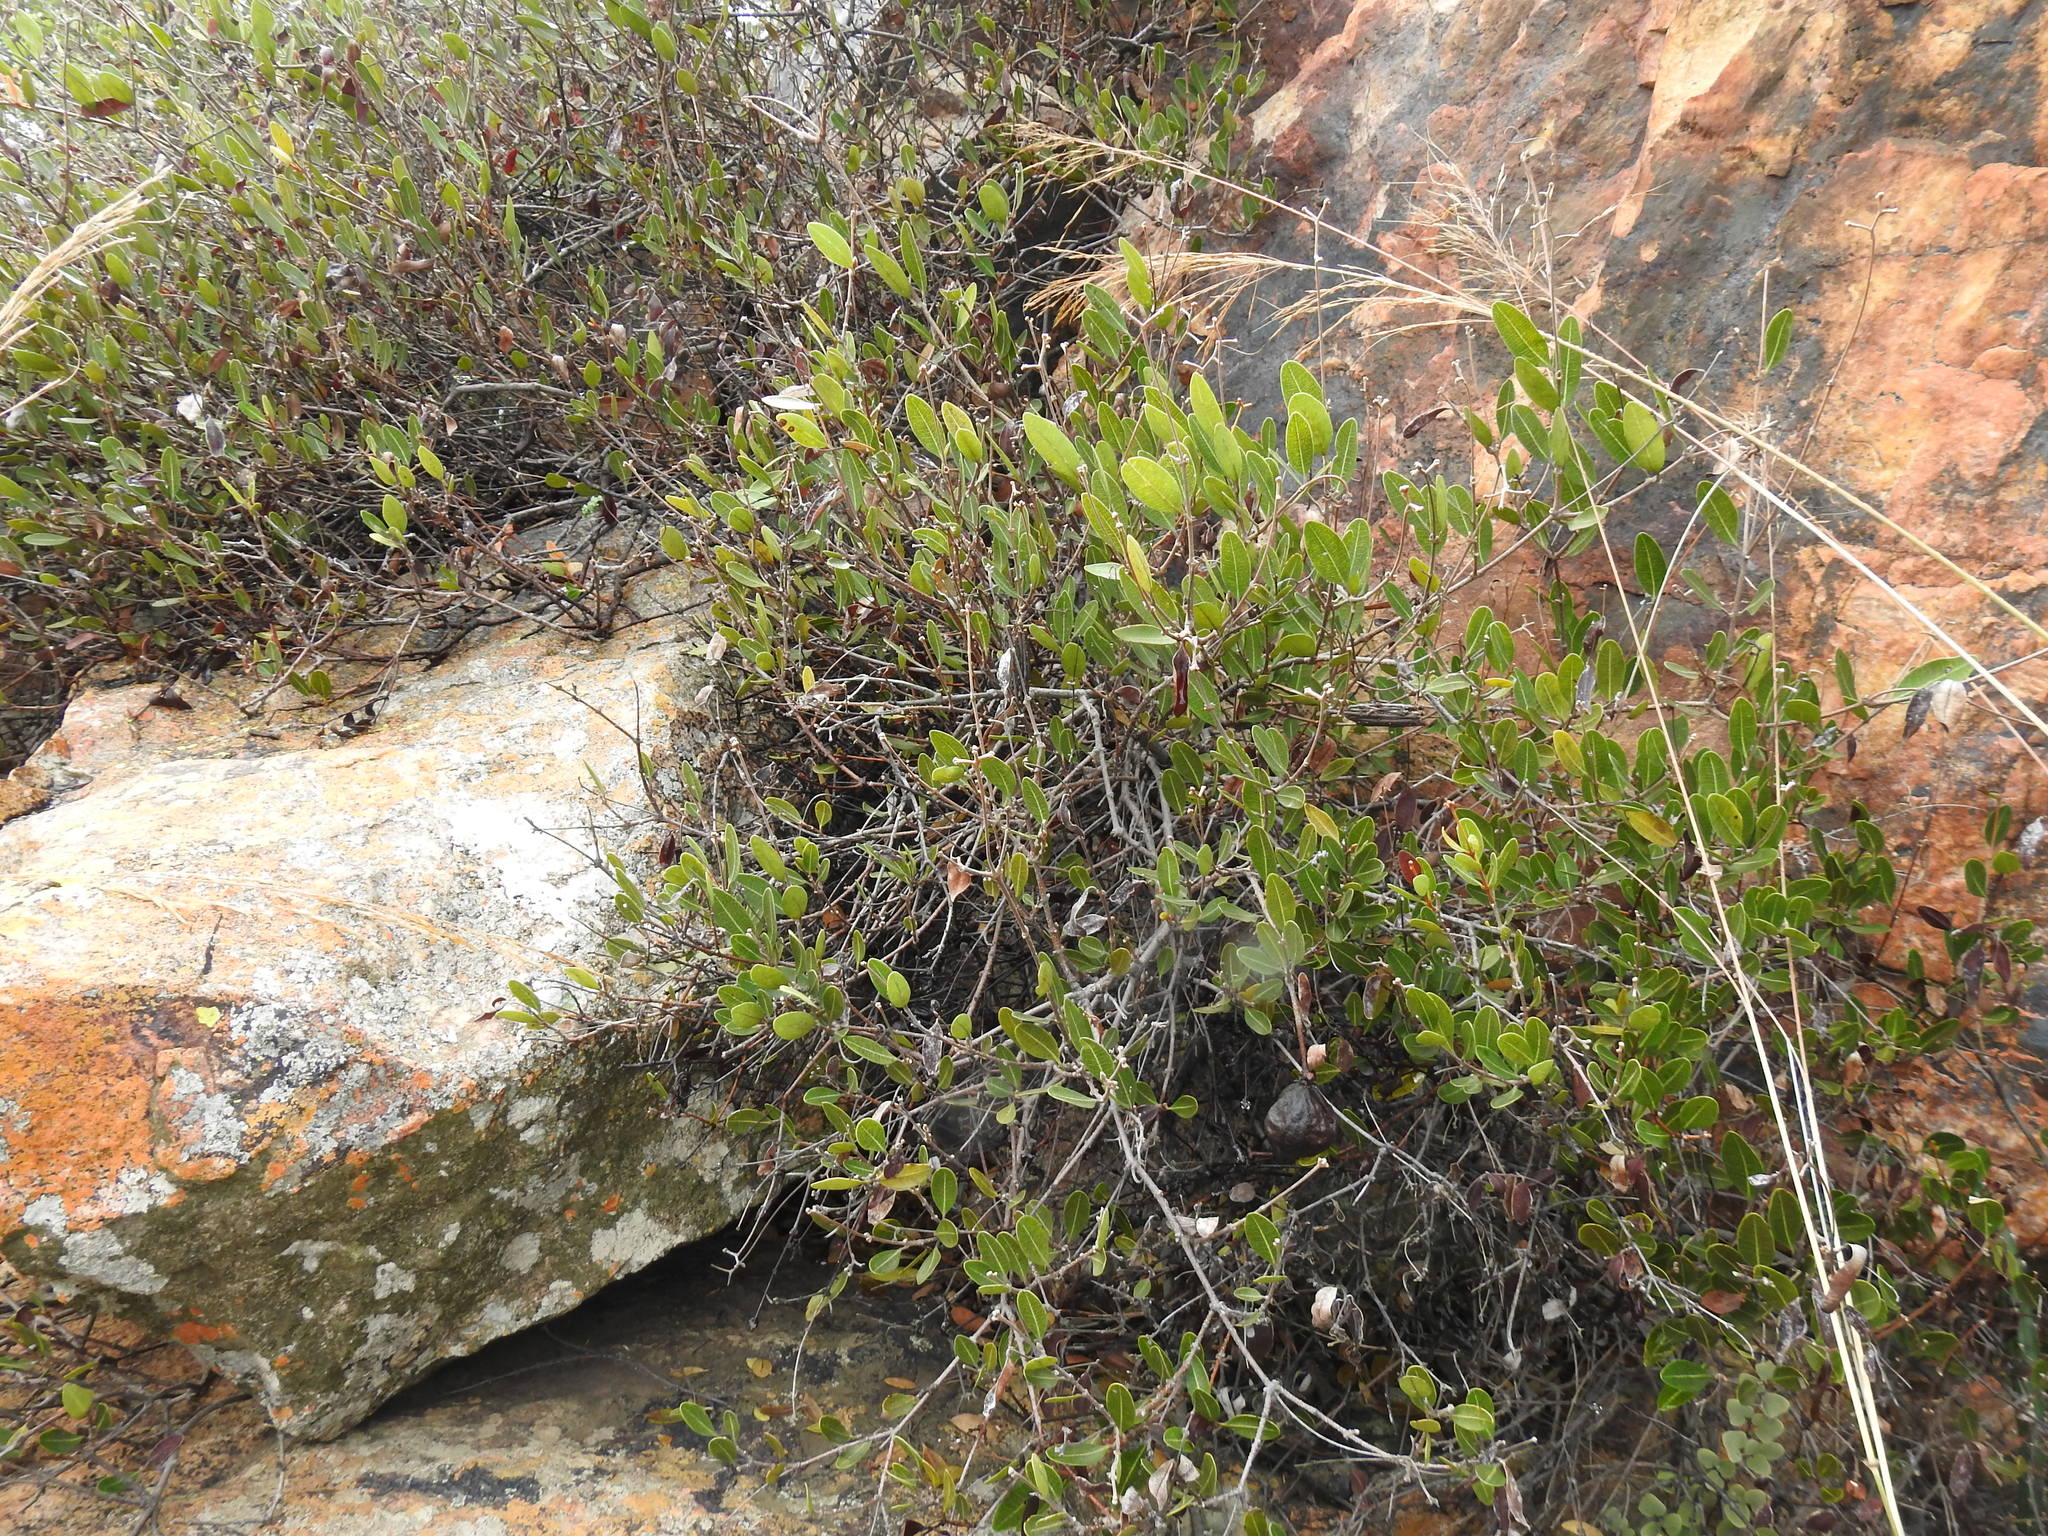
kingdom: Plantae
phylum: Tracheophyta
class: Magnoliopsida
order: Gentianales
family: Apocynaceae
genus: Ancylobothrys
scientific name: Ancylobothrys capensis
